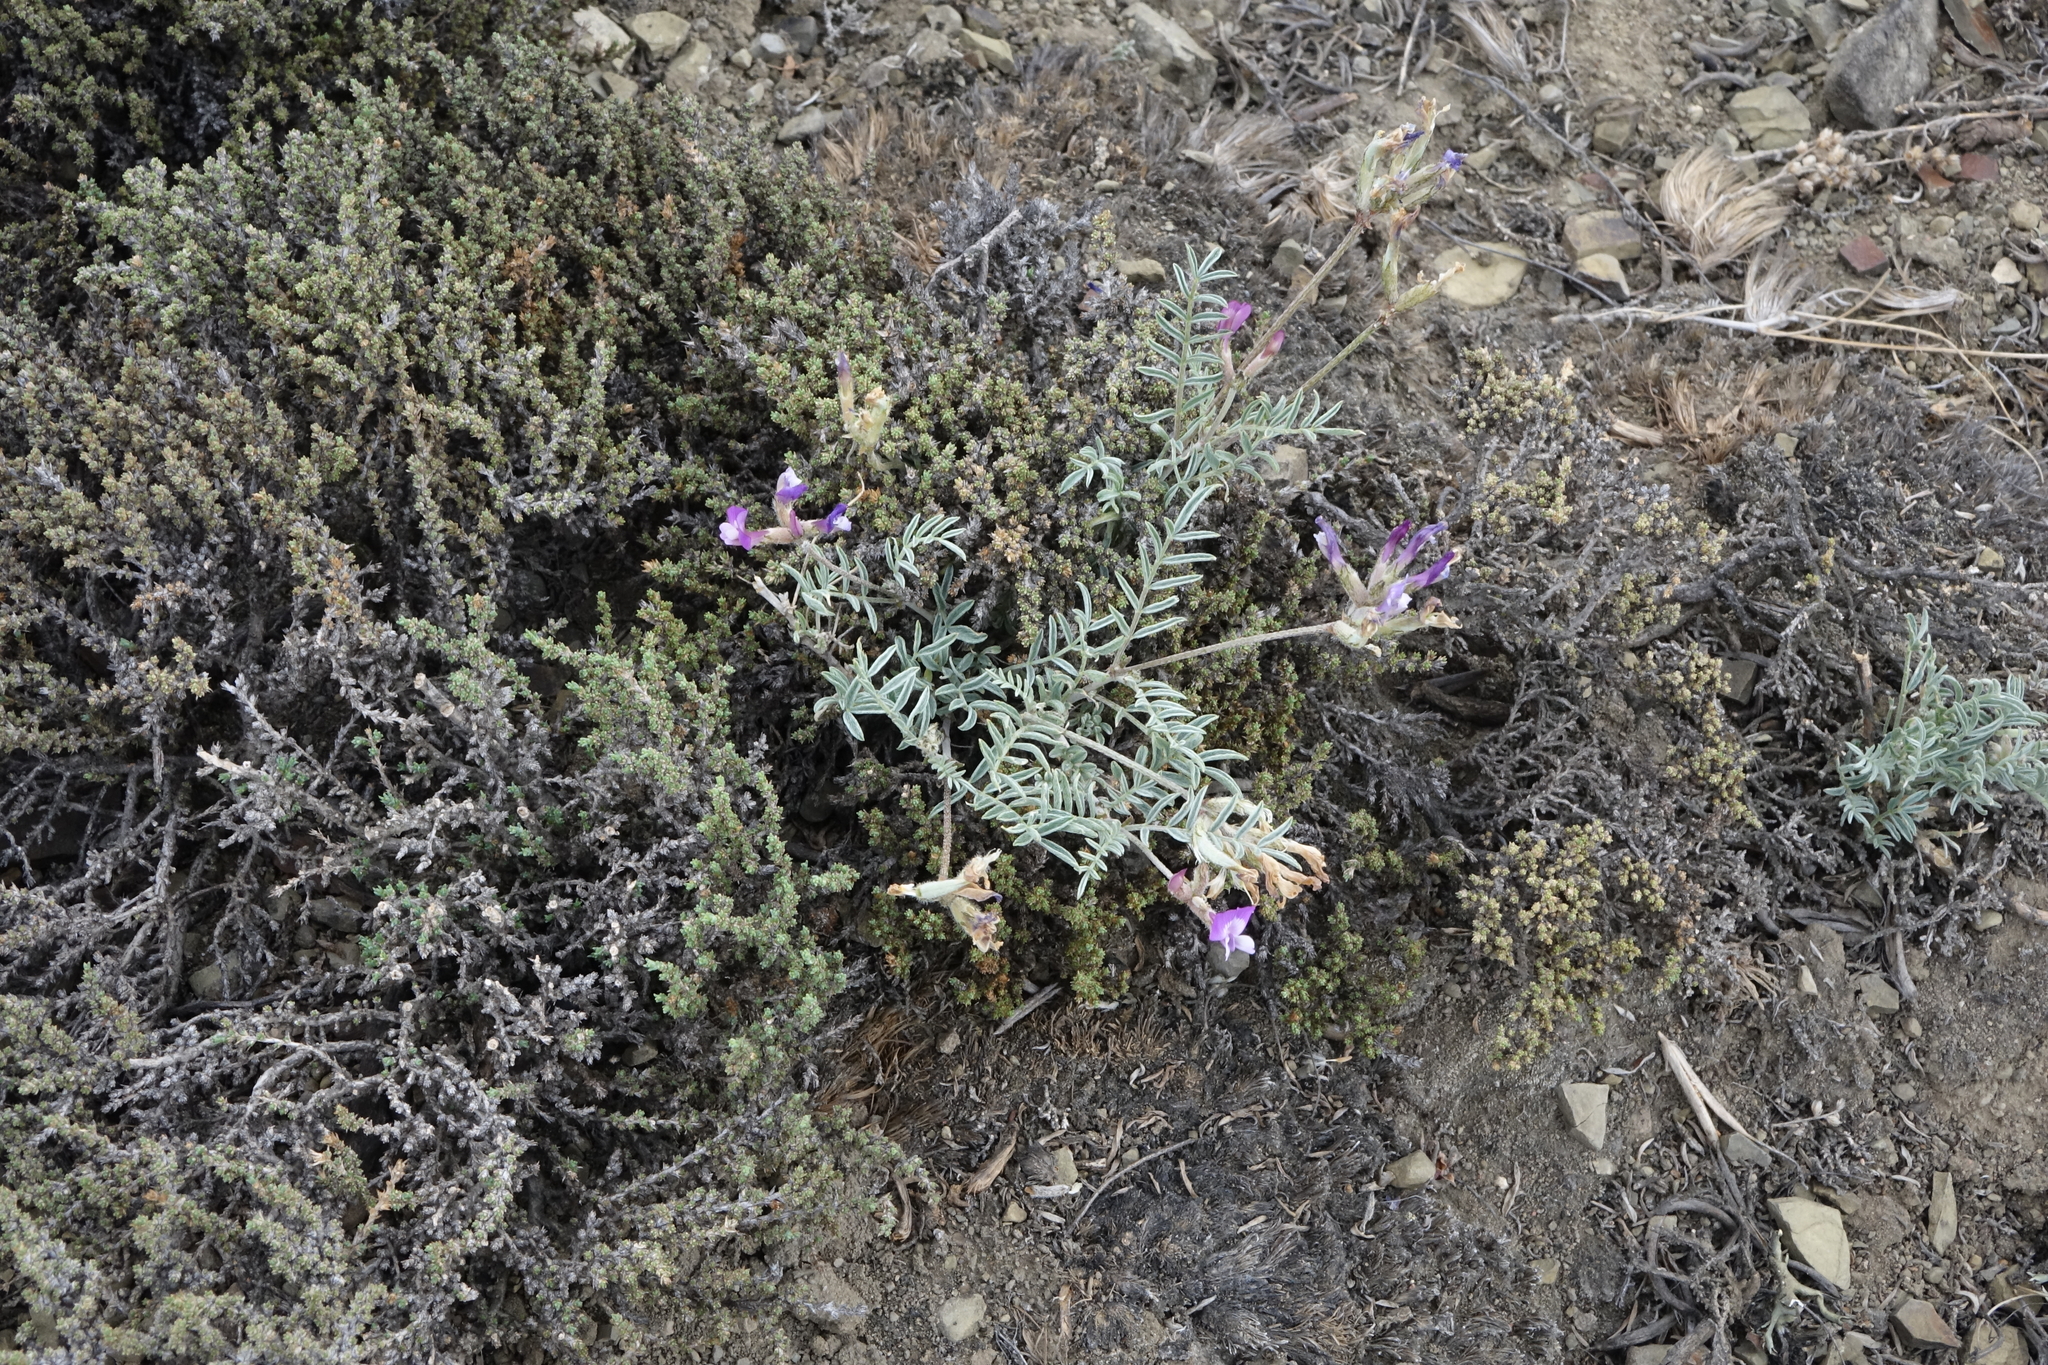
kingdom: Plantae
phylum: Tracheophyta
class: Magnoliopsida
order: Fabales
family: Fabaceae
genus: Astragalus
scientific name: Astragalus stenoceras
